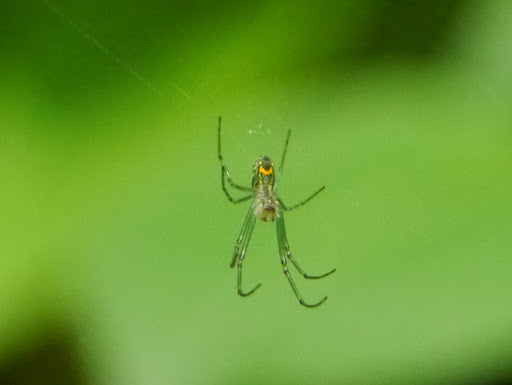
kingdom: Animalia
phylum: Arthropoda
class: Arachnida
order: Araneae
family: Tetragnathidae
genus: Leucauge
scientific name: Leucauge venusta
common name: Longjawed orb weavers
